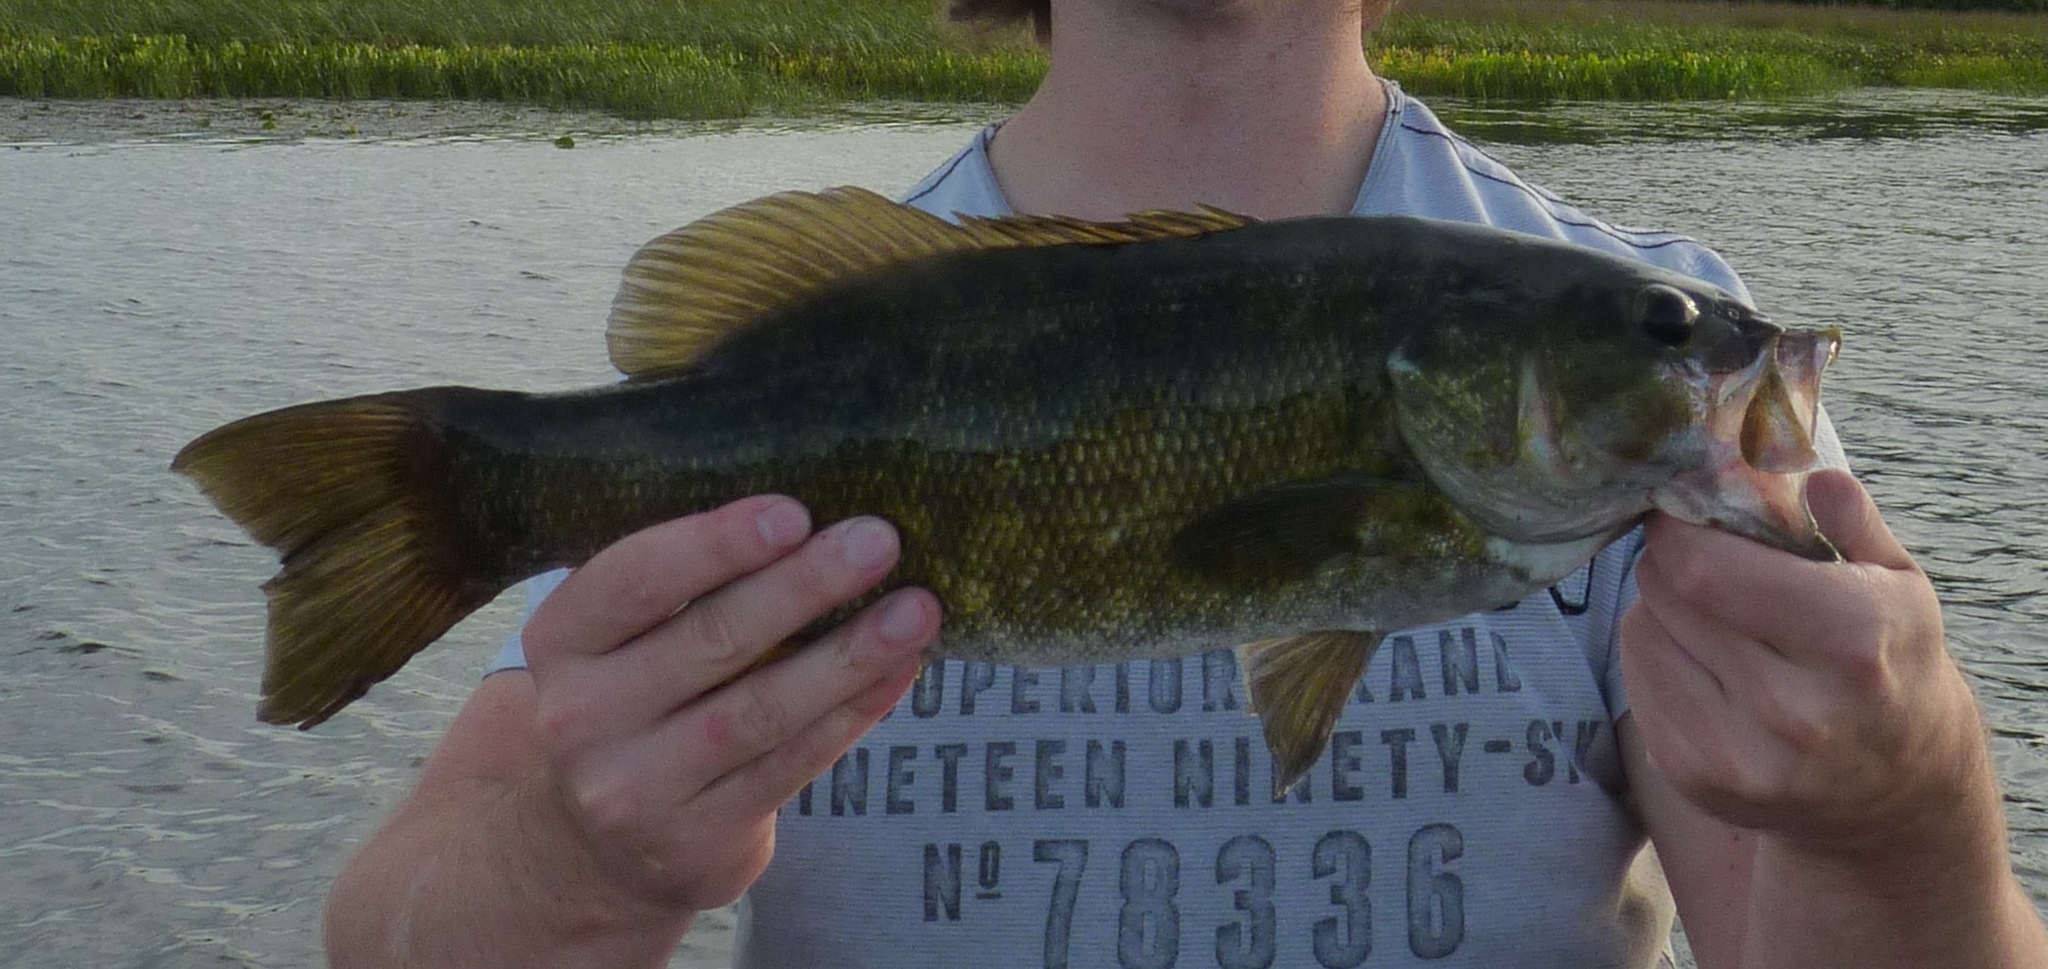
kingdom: Animalia
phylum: Chordata
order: Perciformes
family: Centrarchidae
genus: Micropterus
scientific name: Micropterus dolomieu
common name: Smallmouth bass
